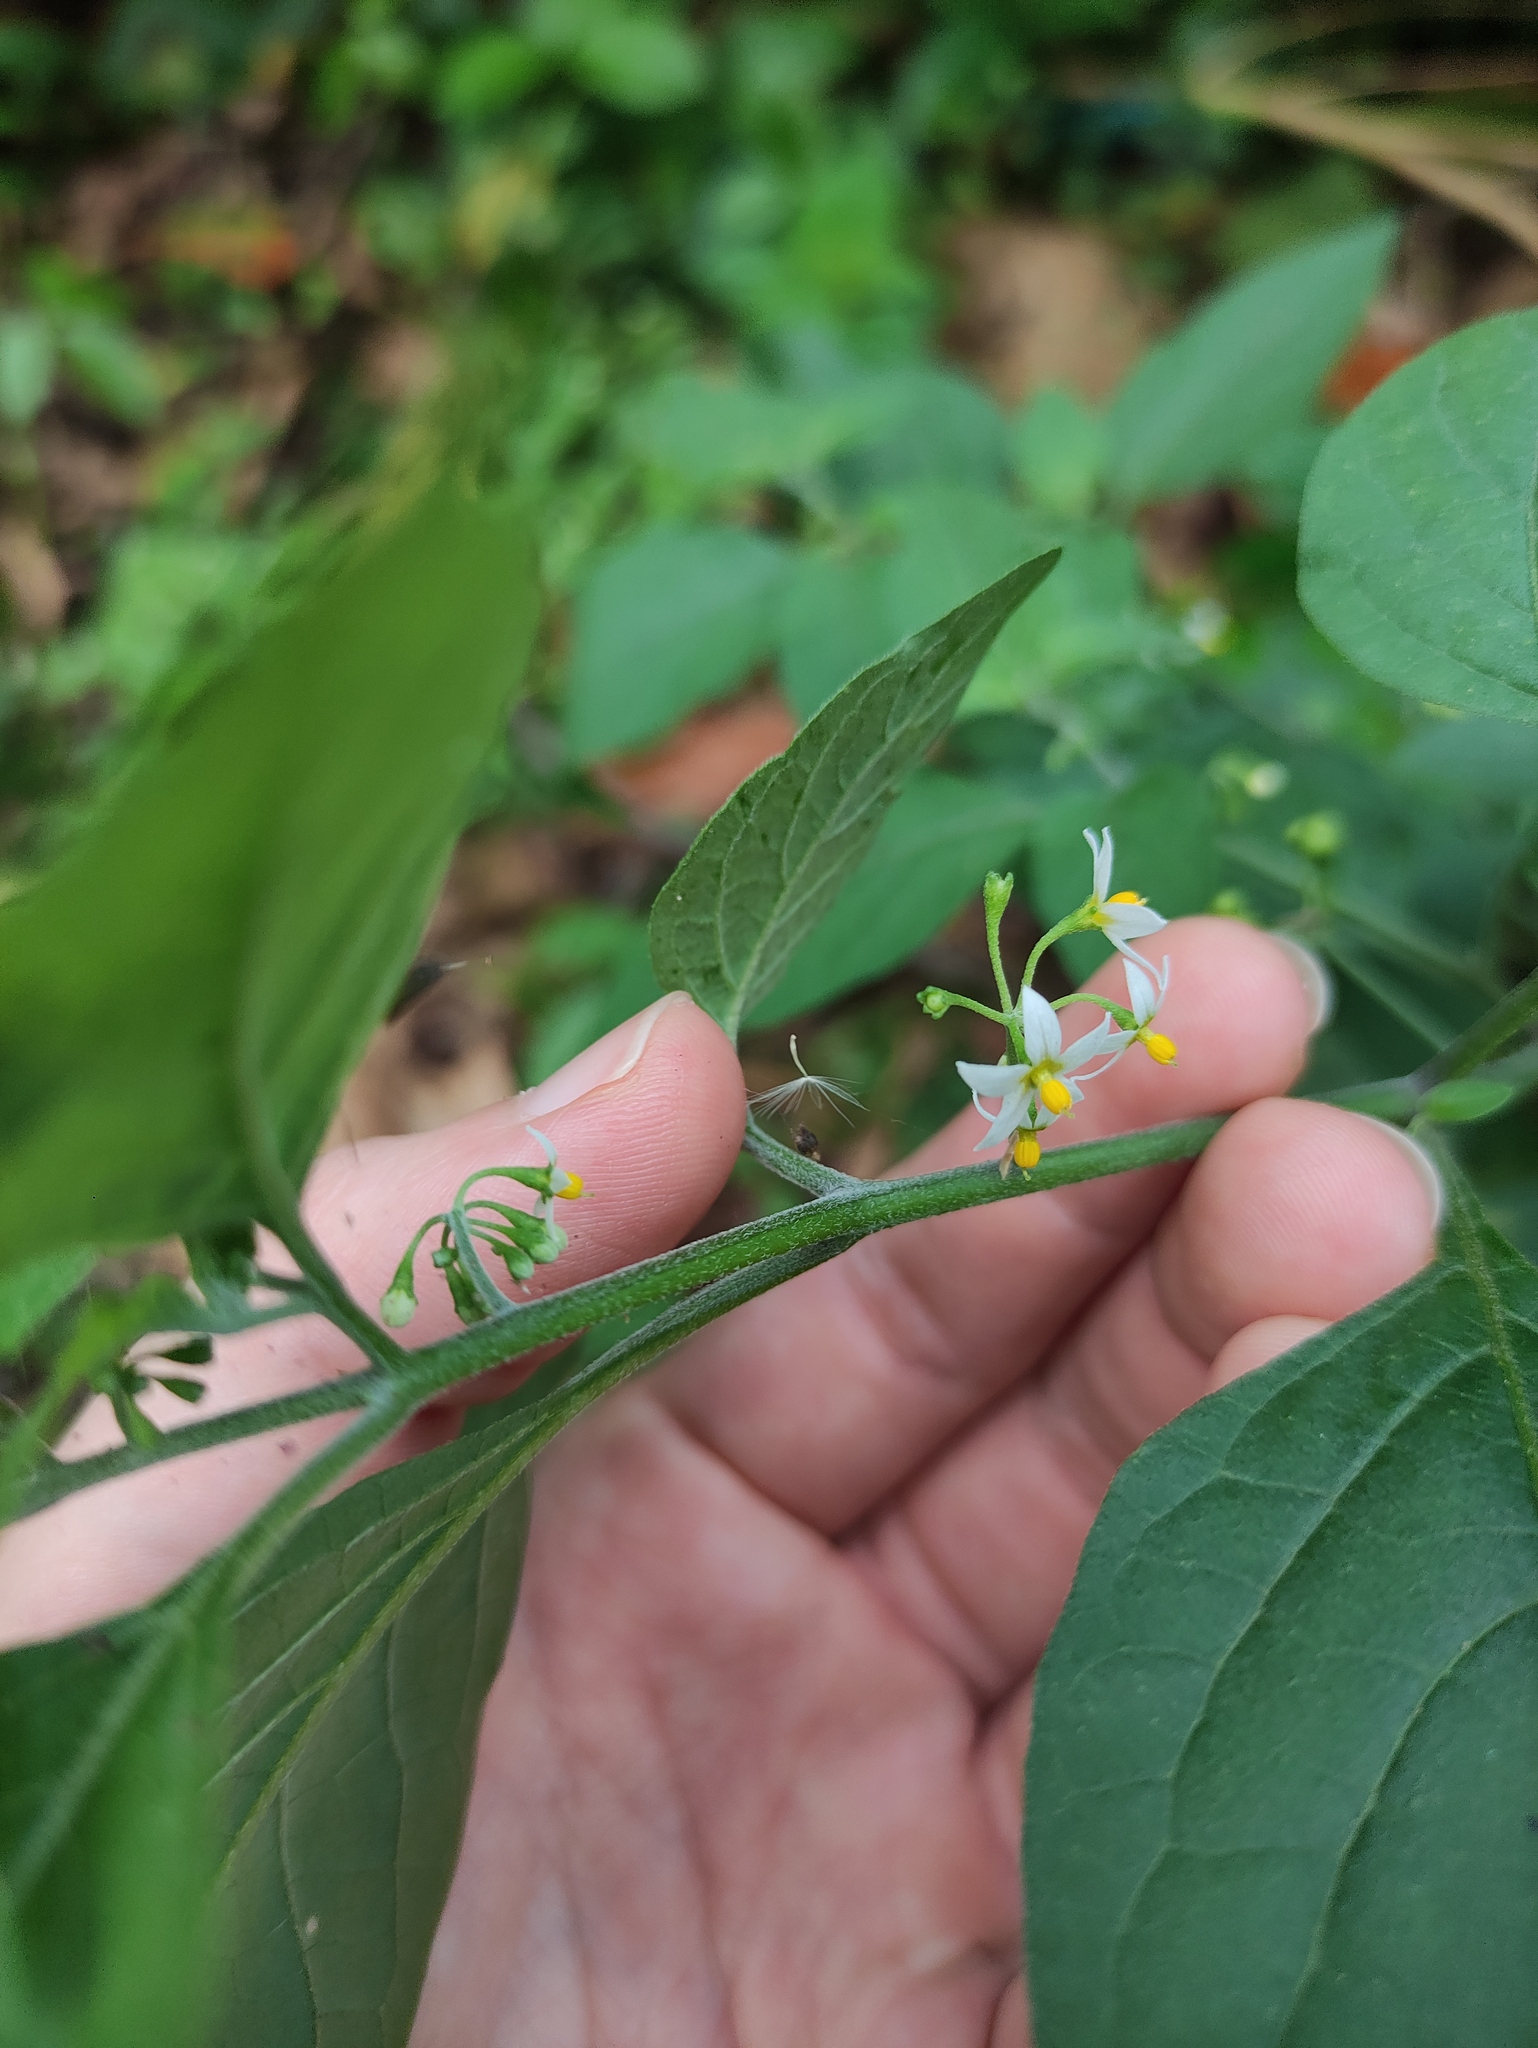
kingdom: Plantae
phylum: Tracheophyta
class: Magnoliopsida
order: Solanales
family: Solanaceae
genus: Solanum
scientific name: Solanum americanum
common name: American black nightshade
